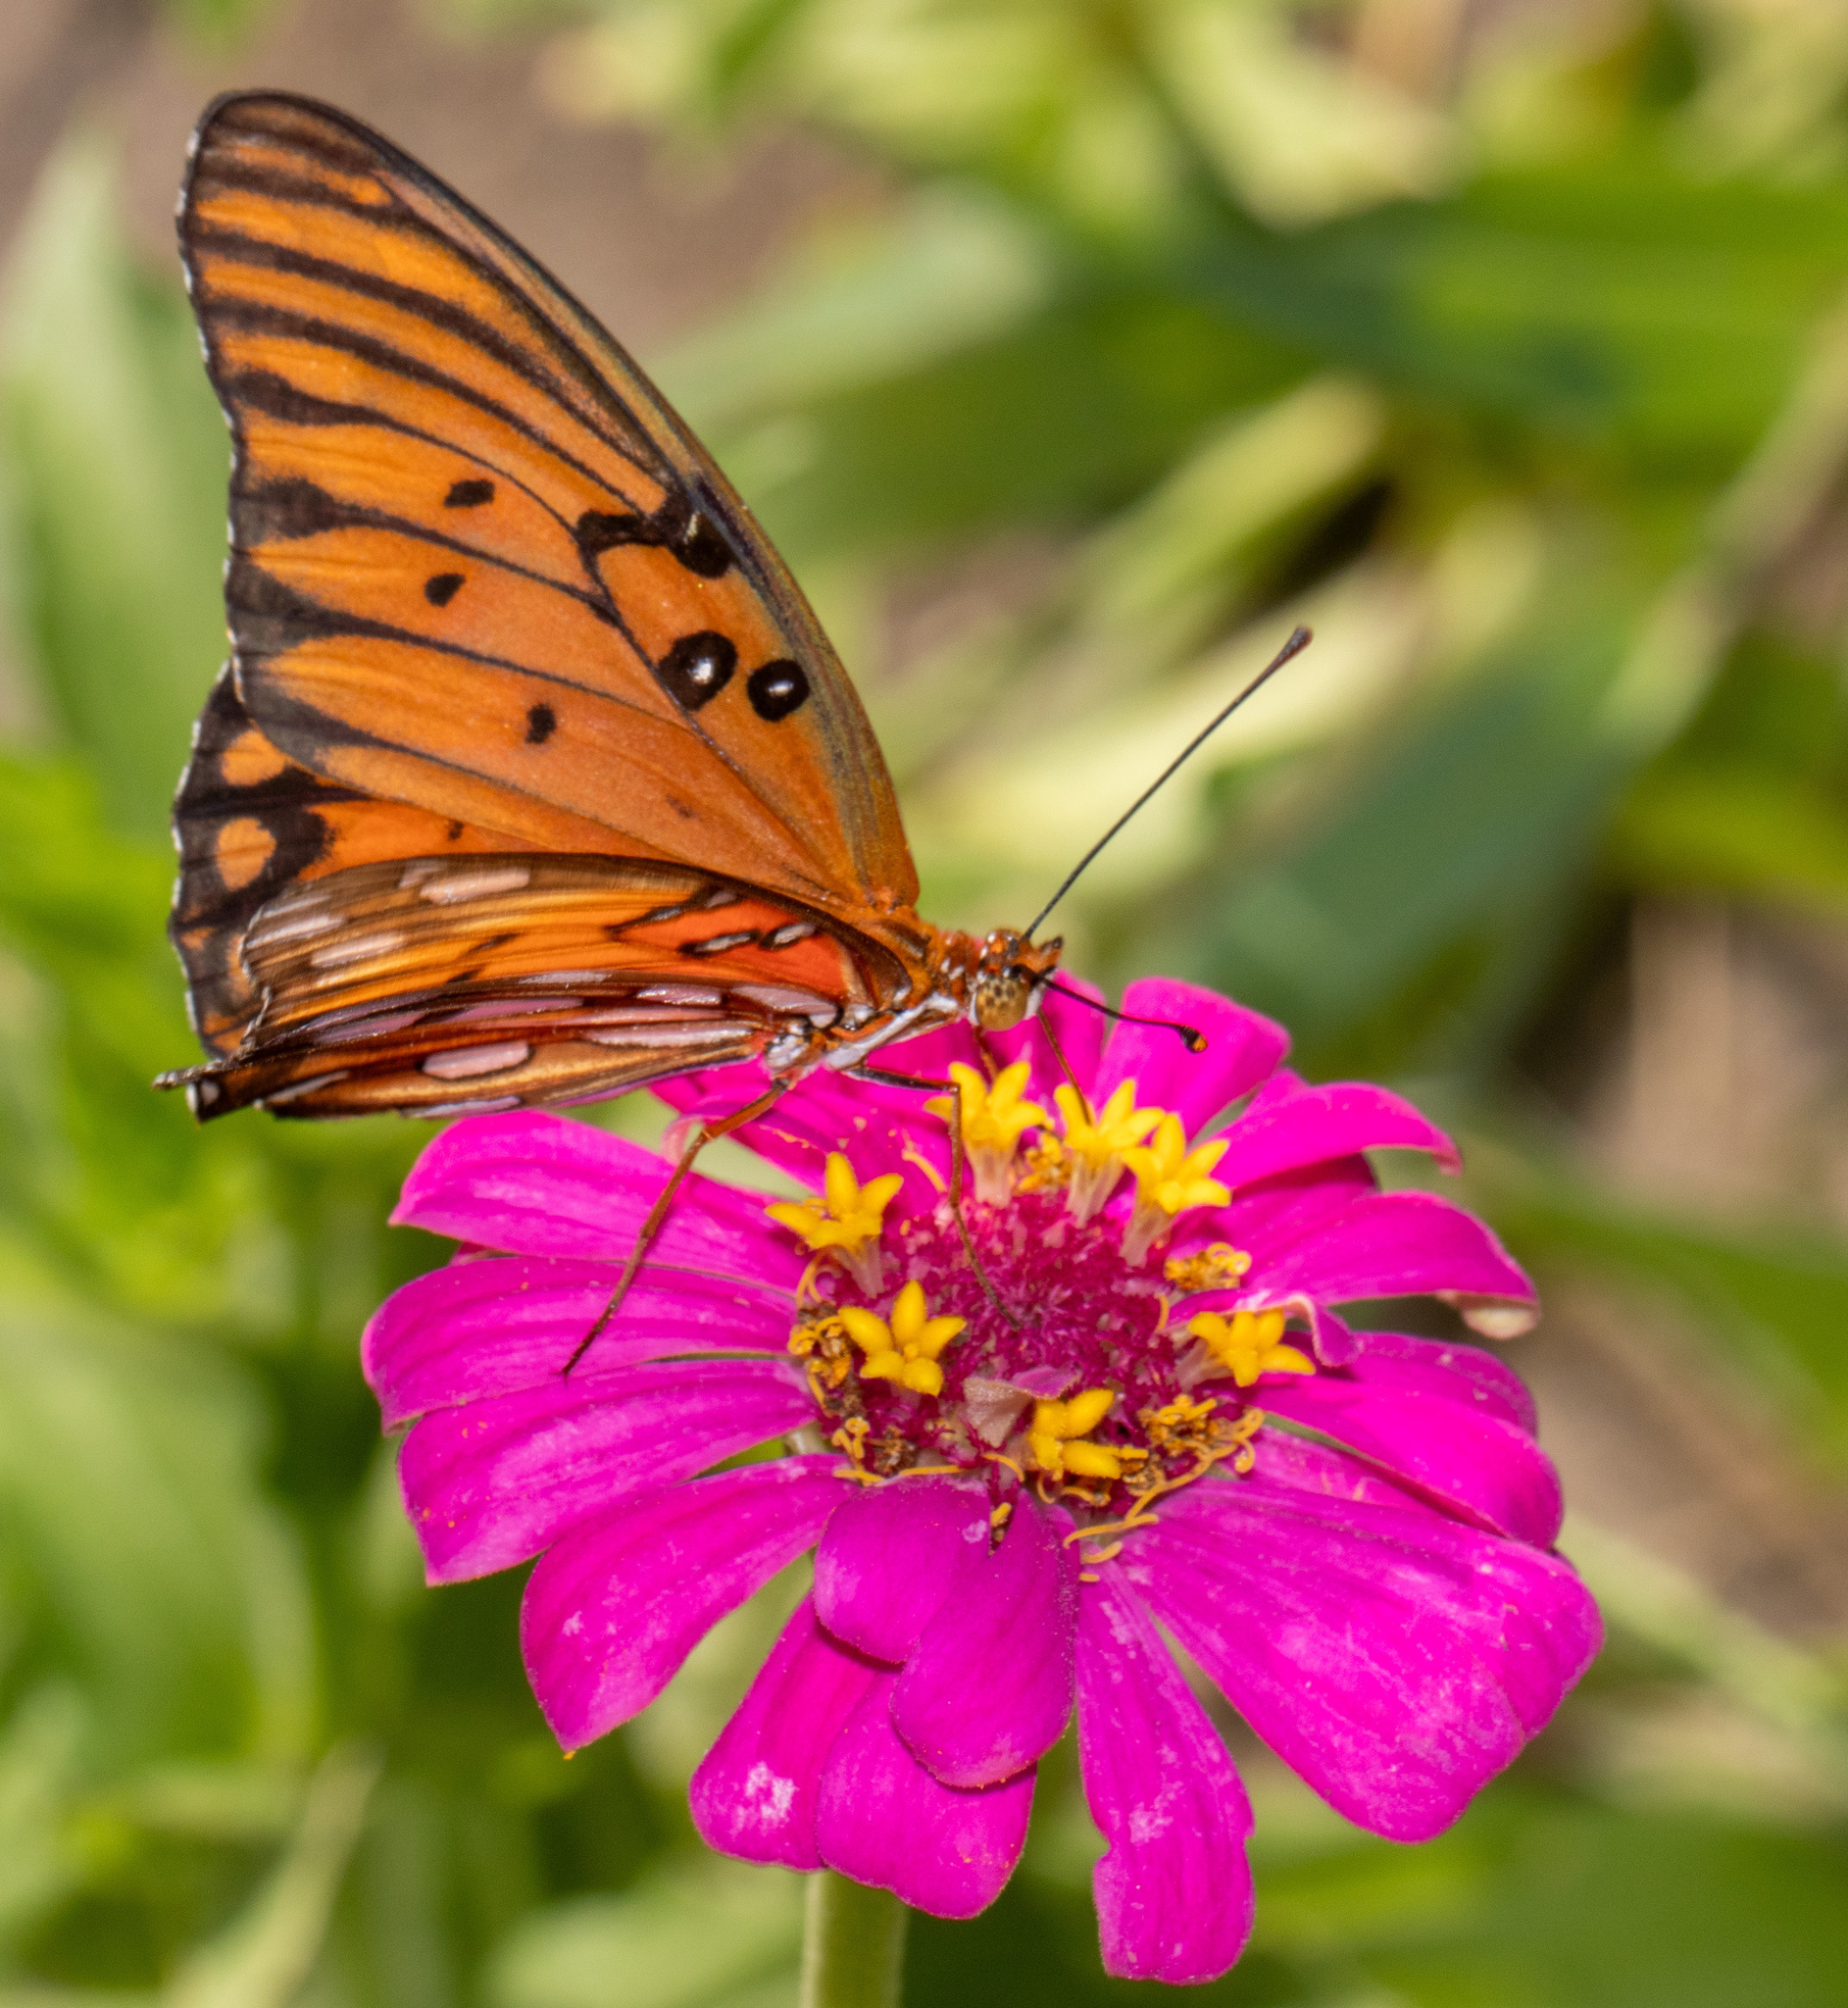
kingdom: Animalia
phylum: Arthropoda
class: Insecta
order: Lepidoptera
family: Nymphalidae
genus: Dione
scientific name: Dione vanillae
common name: Gulf fritillary
